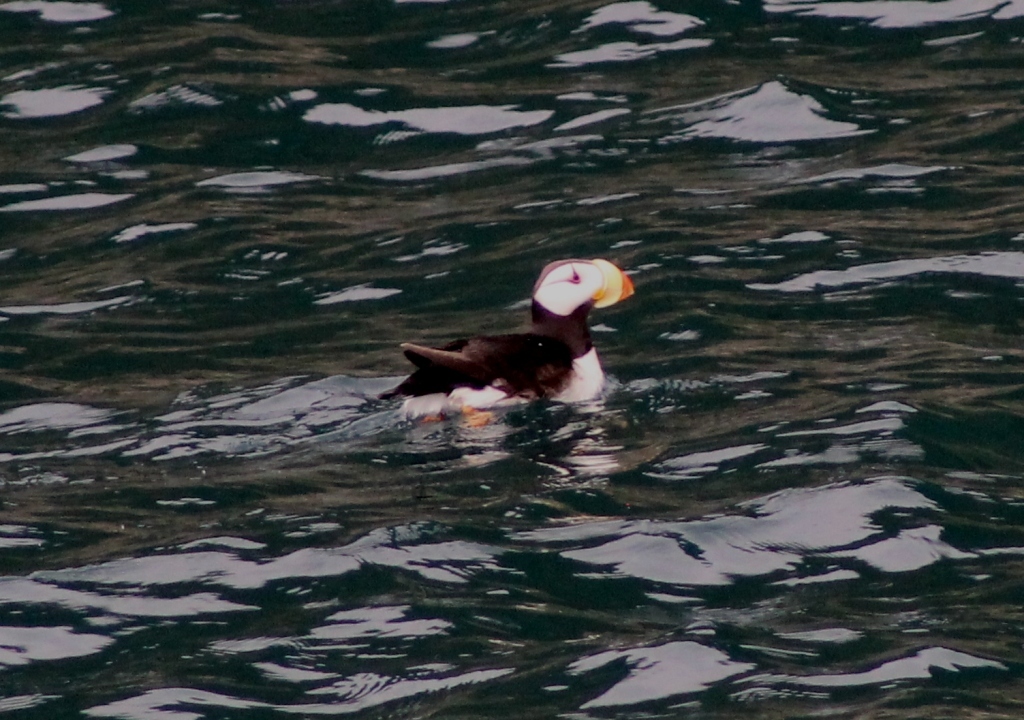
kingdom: Animalia
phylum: Chordata
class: Aves
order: Charadriiformes
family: Alcidae
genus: Fratercula
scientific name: Fratercula corniculata
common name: Horned puffin
